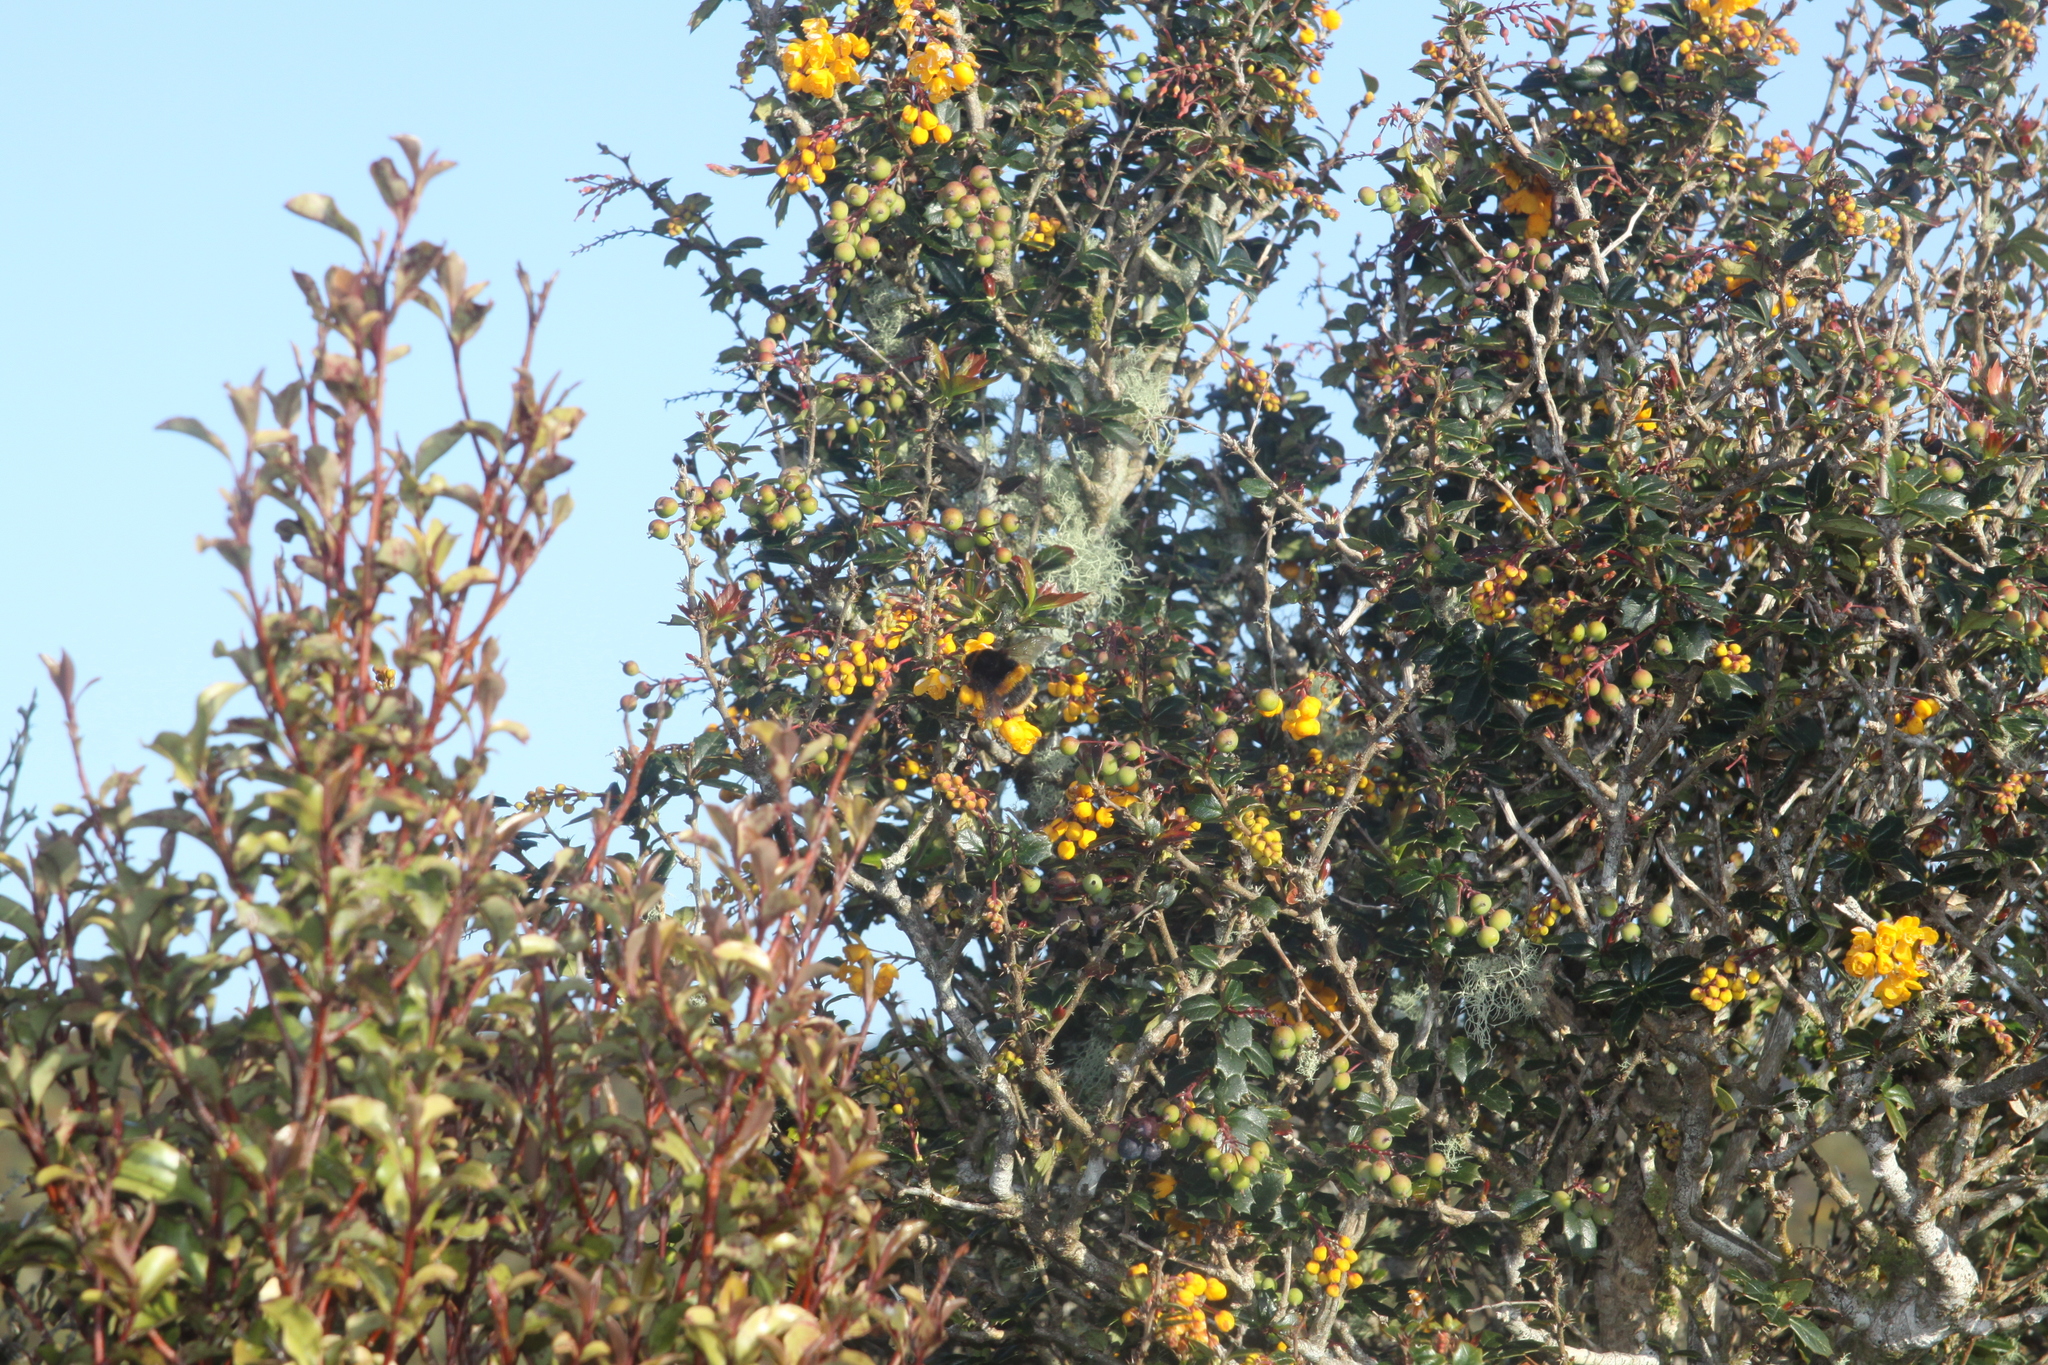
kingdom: Animalia
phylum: Arthropoda
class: Insecta
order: Hymenoptera
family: Apidae
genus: Bombus
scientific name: Bombus terrestris
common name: Buff-tailed bumblebee
